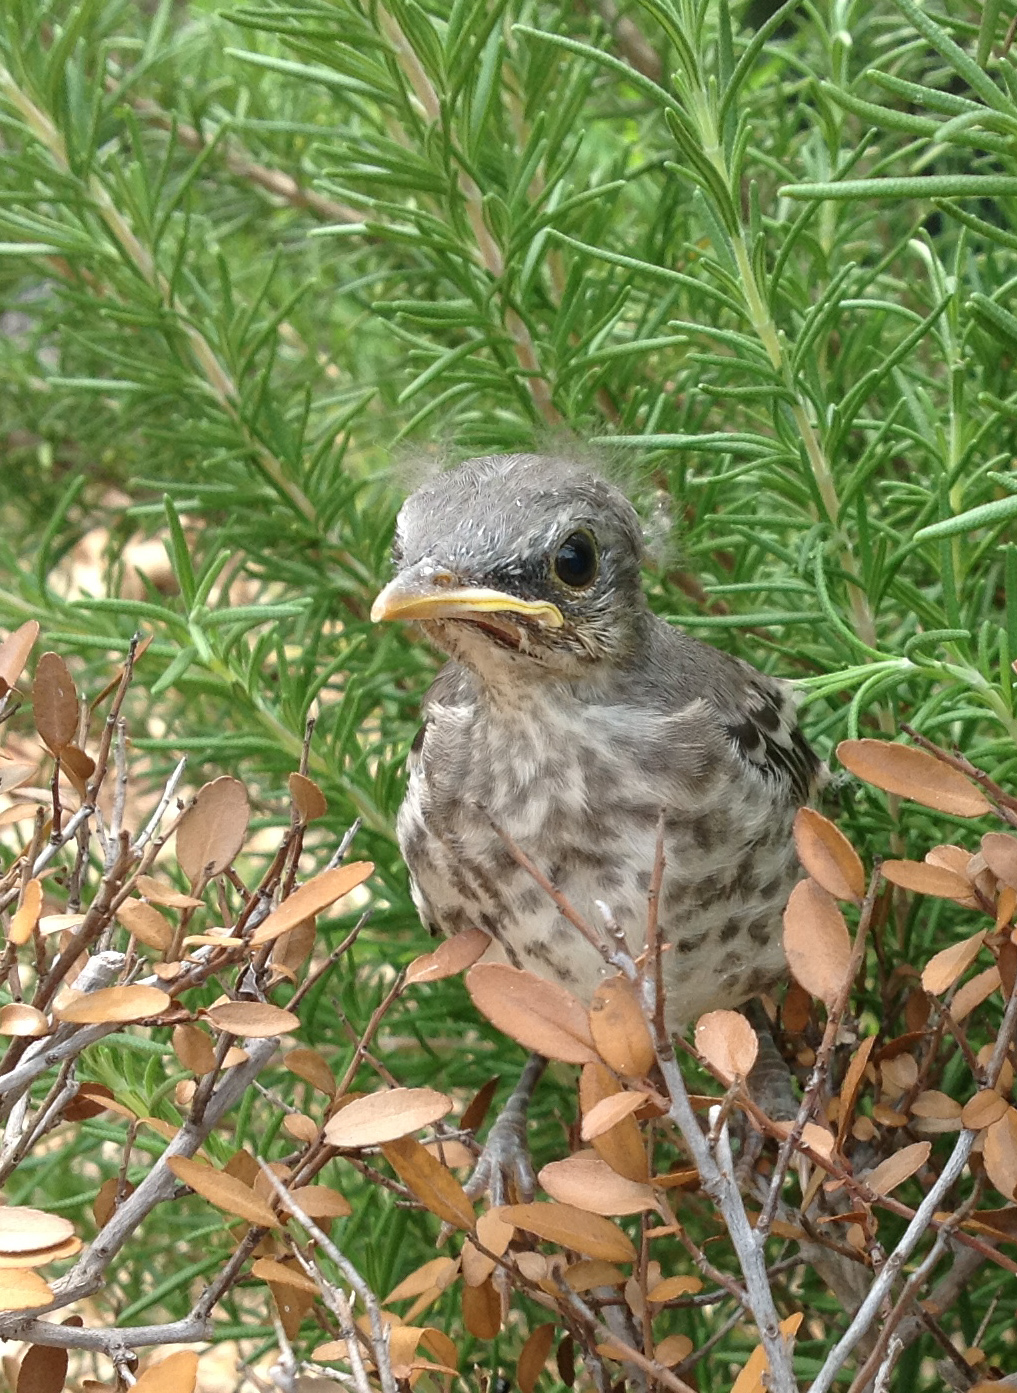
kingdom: Animalia
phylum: Chordata
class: Aves
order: Passeriformes
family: Mimidae
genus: Mimus
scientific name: Mimus polyglottos
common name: Northern mockingbird
